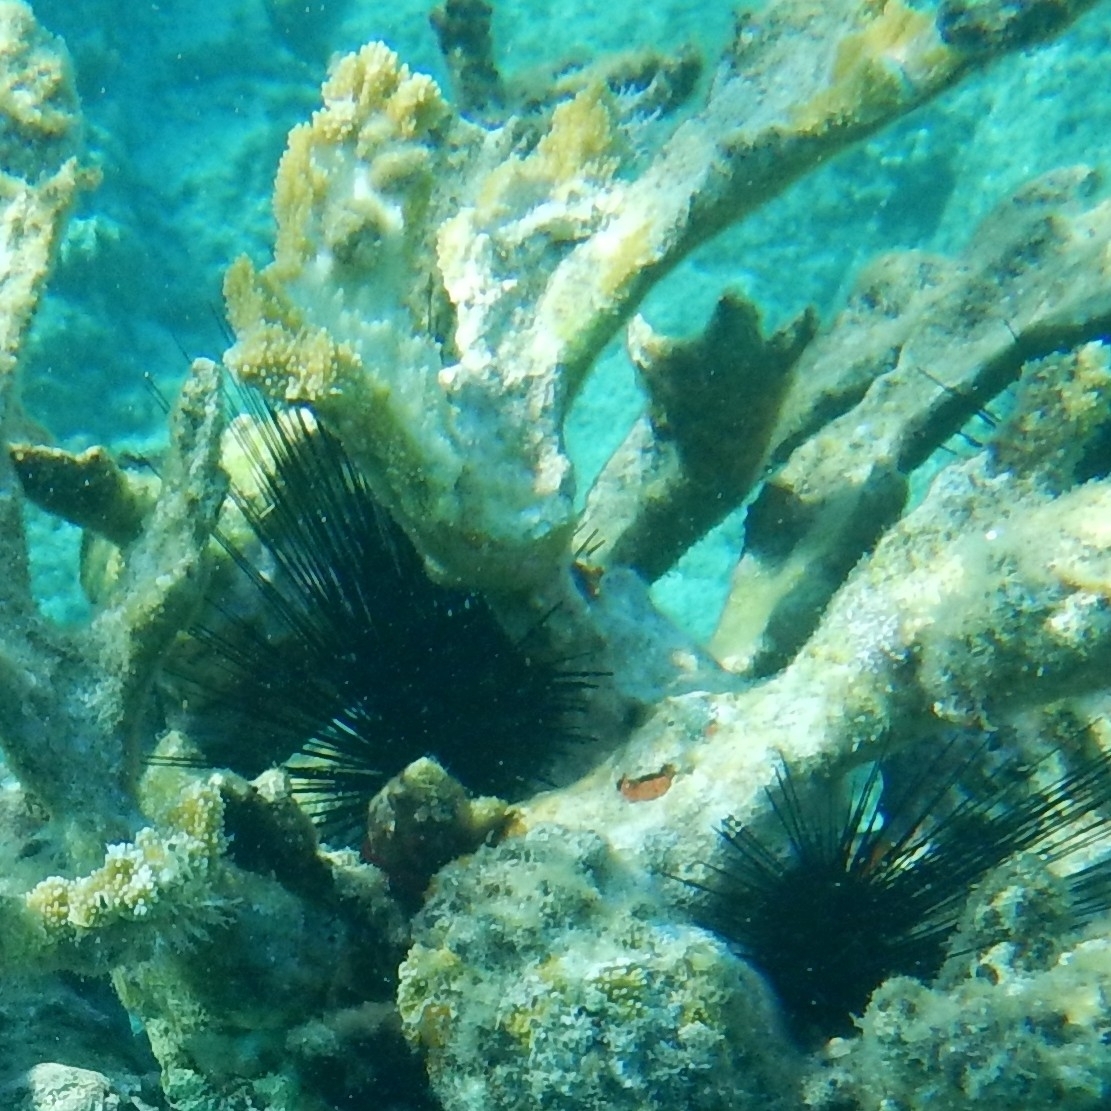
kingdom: Animalia
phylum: Echinodermata
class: Echinoidea
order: Diadematoida
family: Diadematidae
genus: Diadema
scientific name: Diadema antillarum
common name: Spiny urchin
